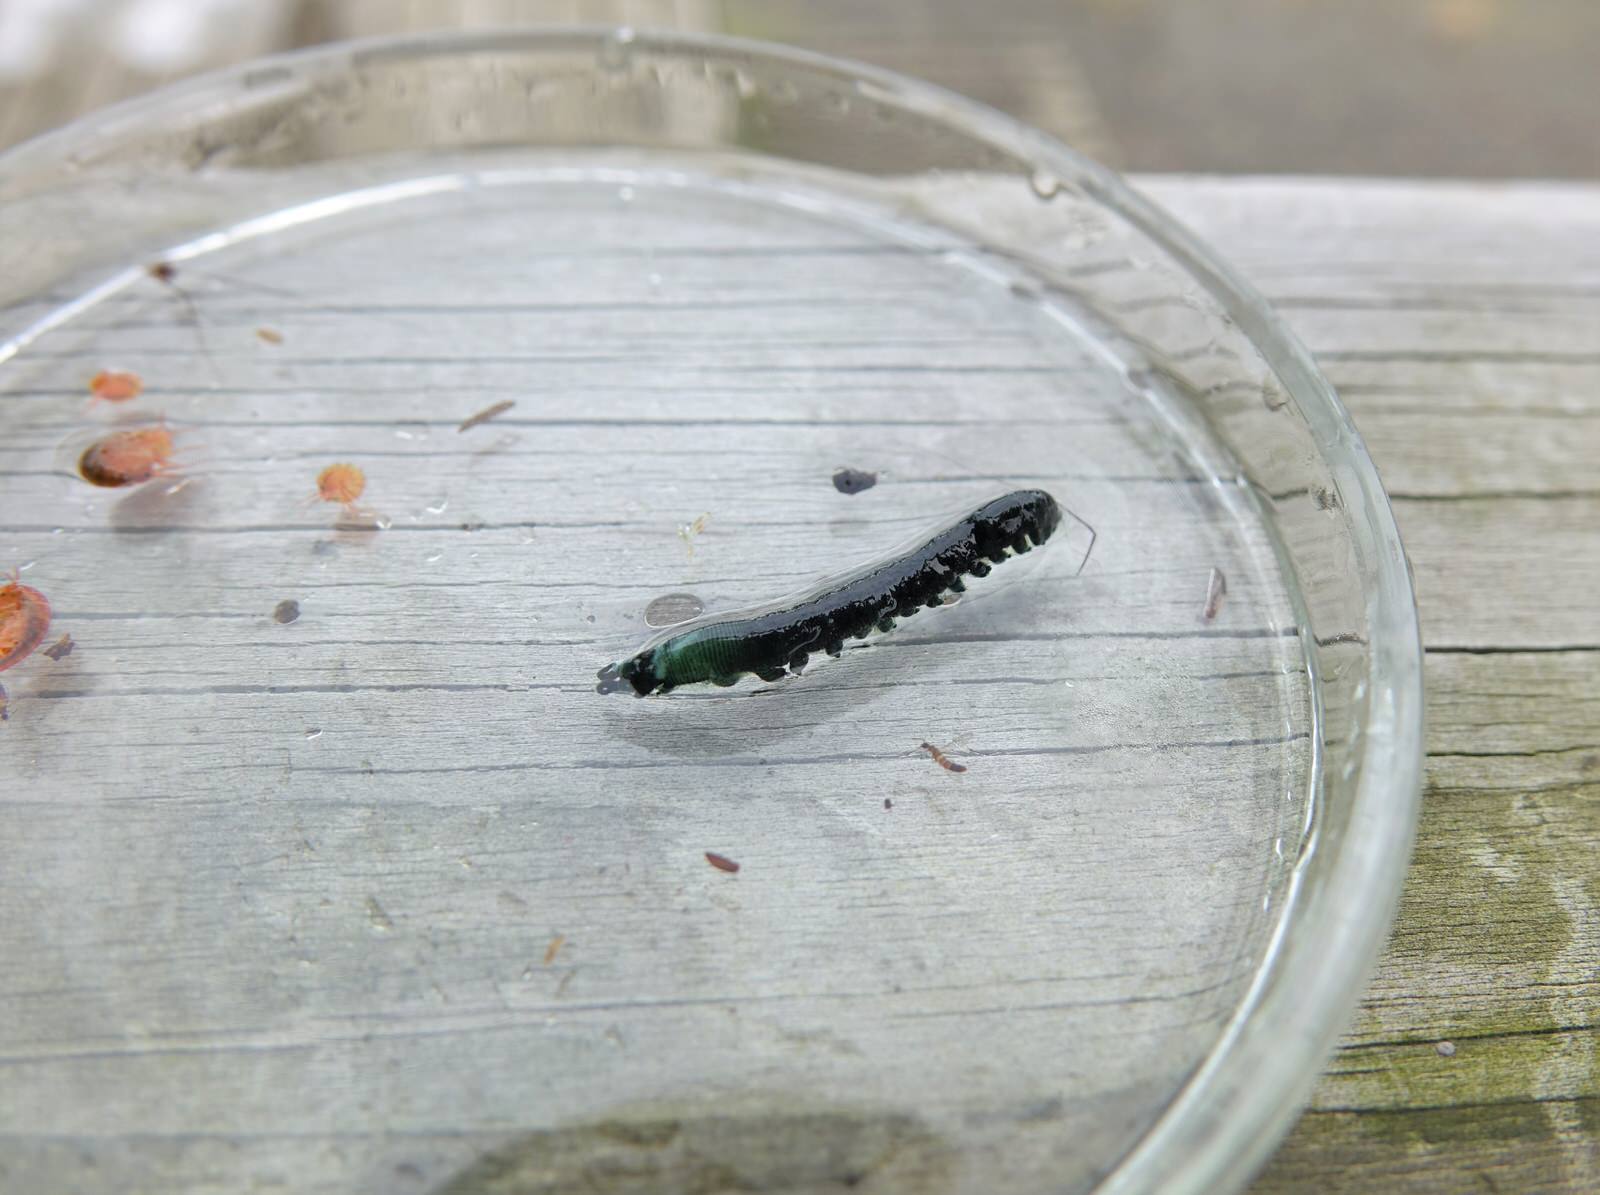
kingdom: Animalia
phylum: Onychophora
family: Peripatopsidae
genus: Peripatoides
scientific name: Peripatoides
